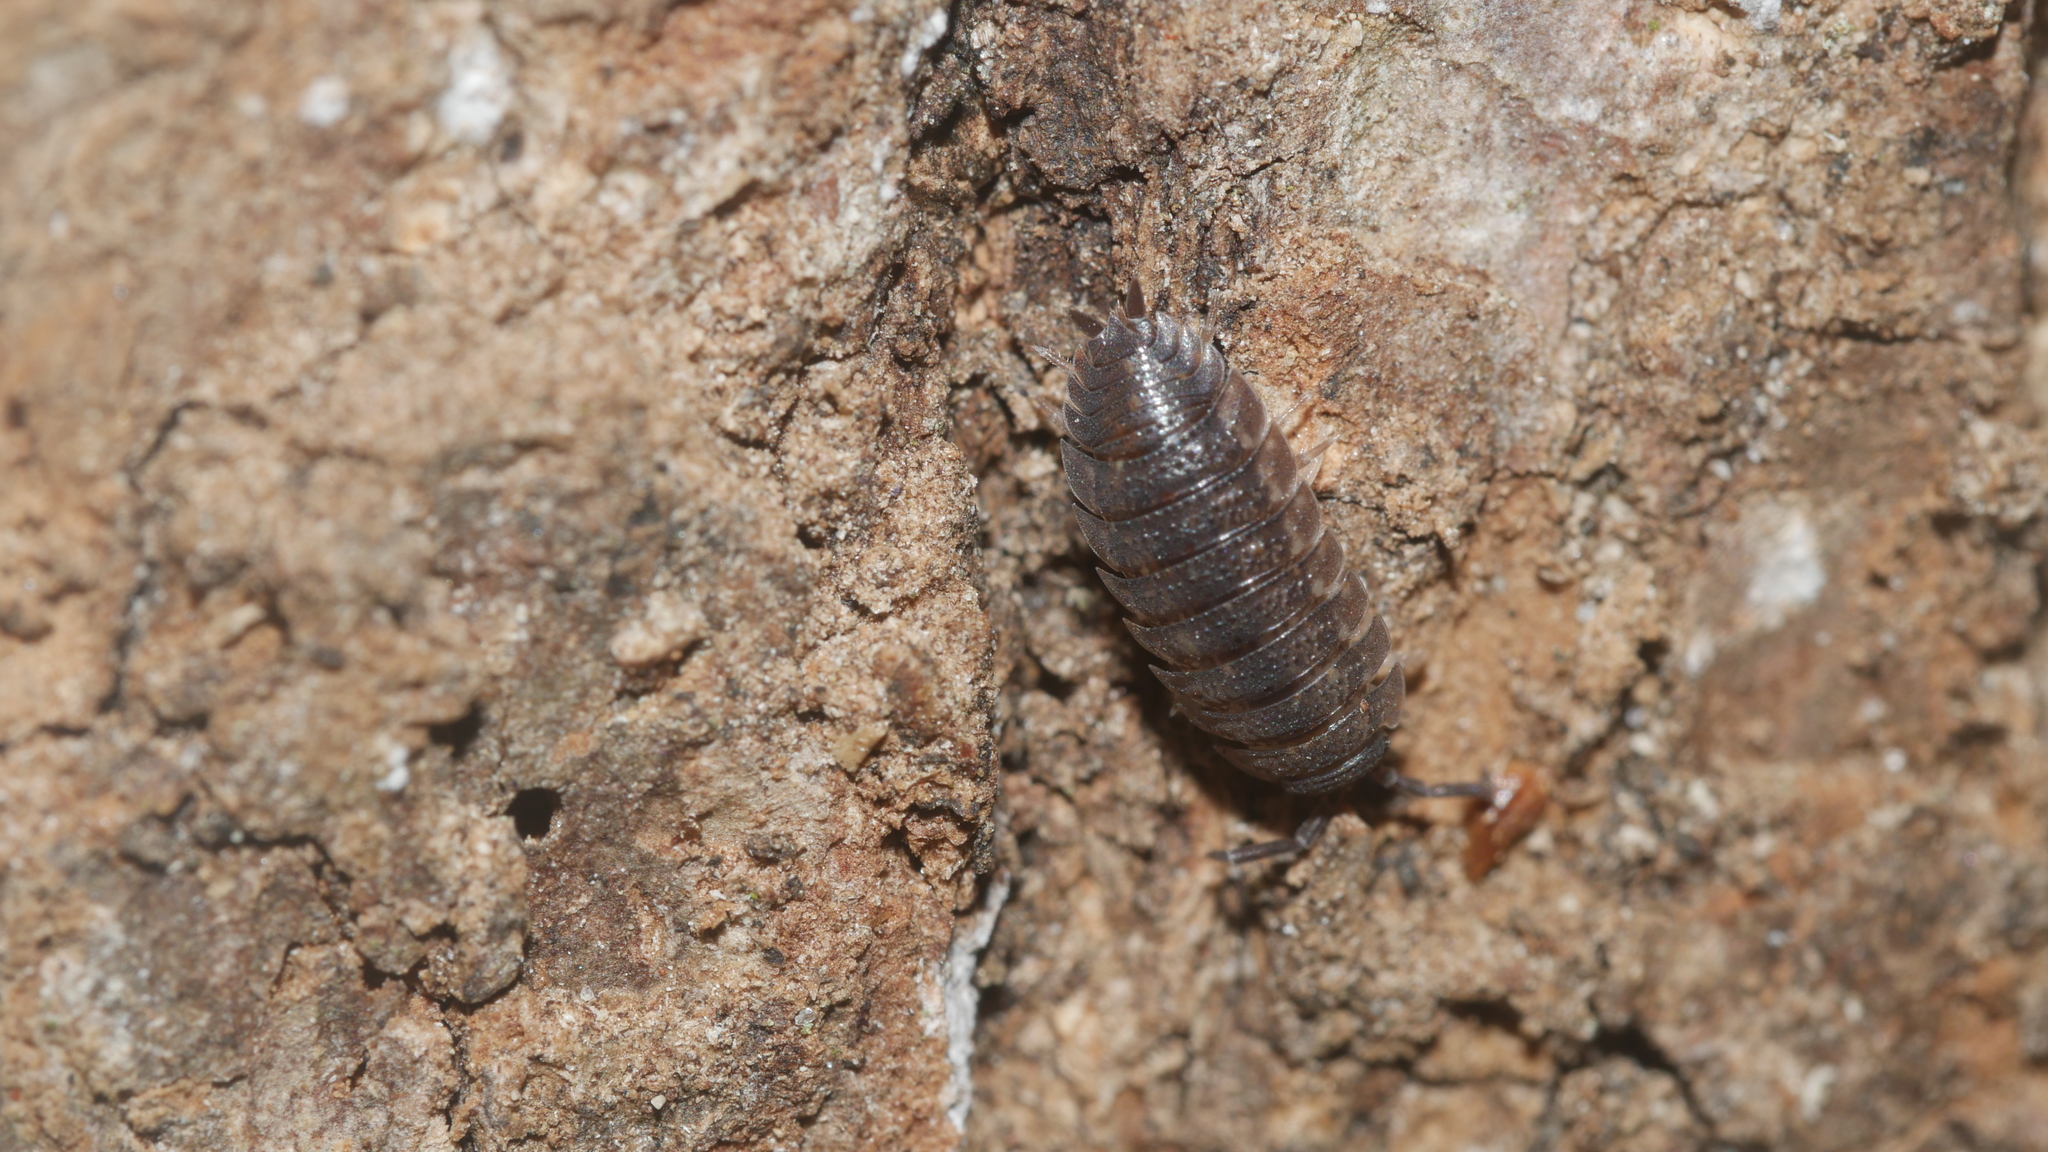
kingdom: Animalia
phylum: Arthropoda
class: Malacostraca
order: Isopoda
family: Porcellionidae
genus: Porcellio
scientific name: Porcellio scaber
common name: Common rough woodlouse
